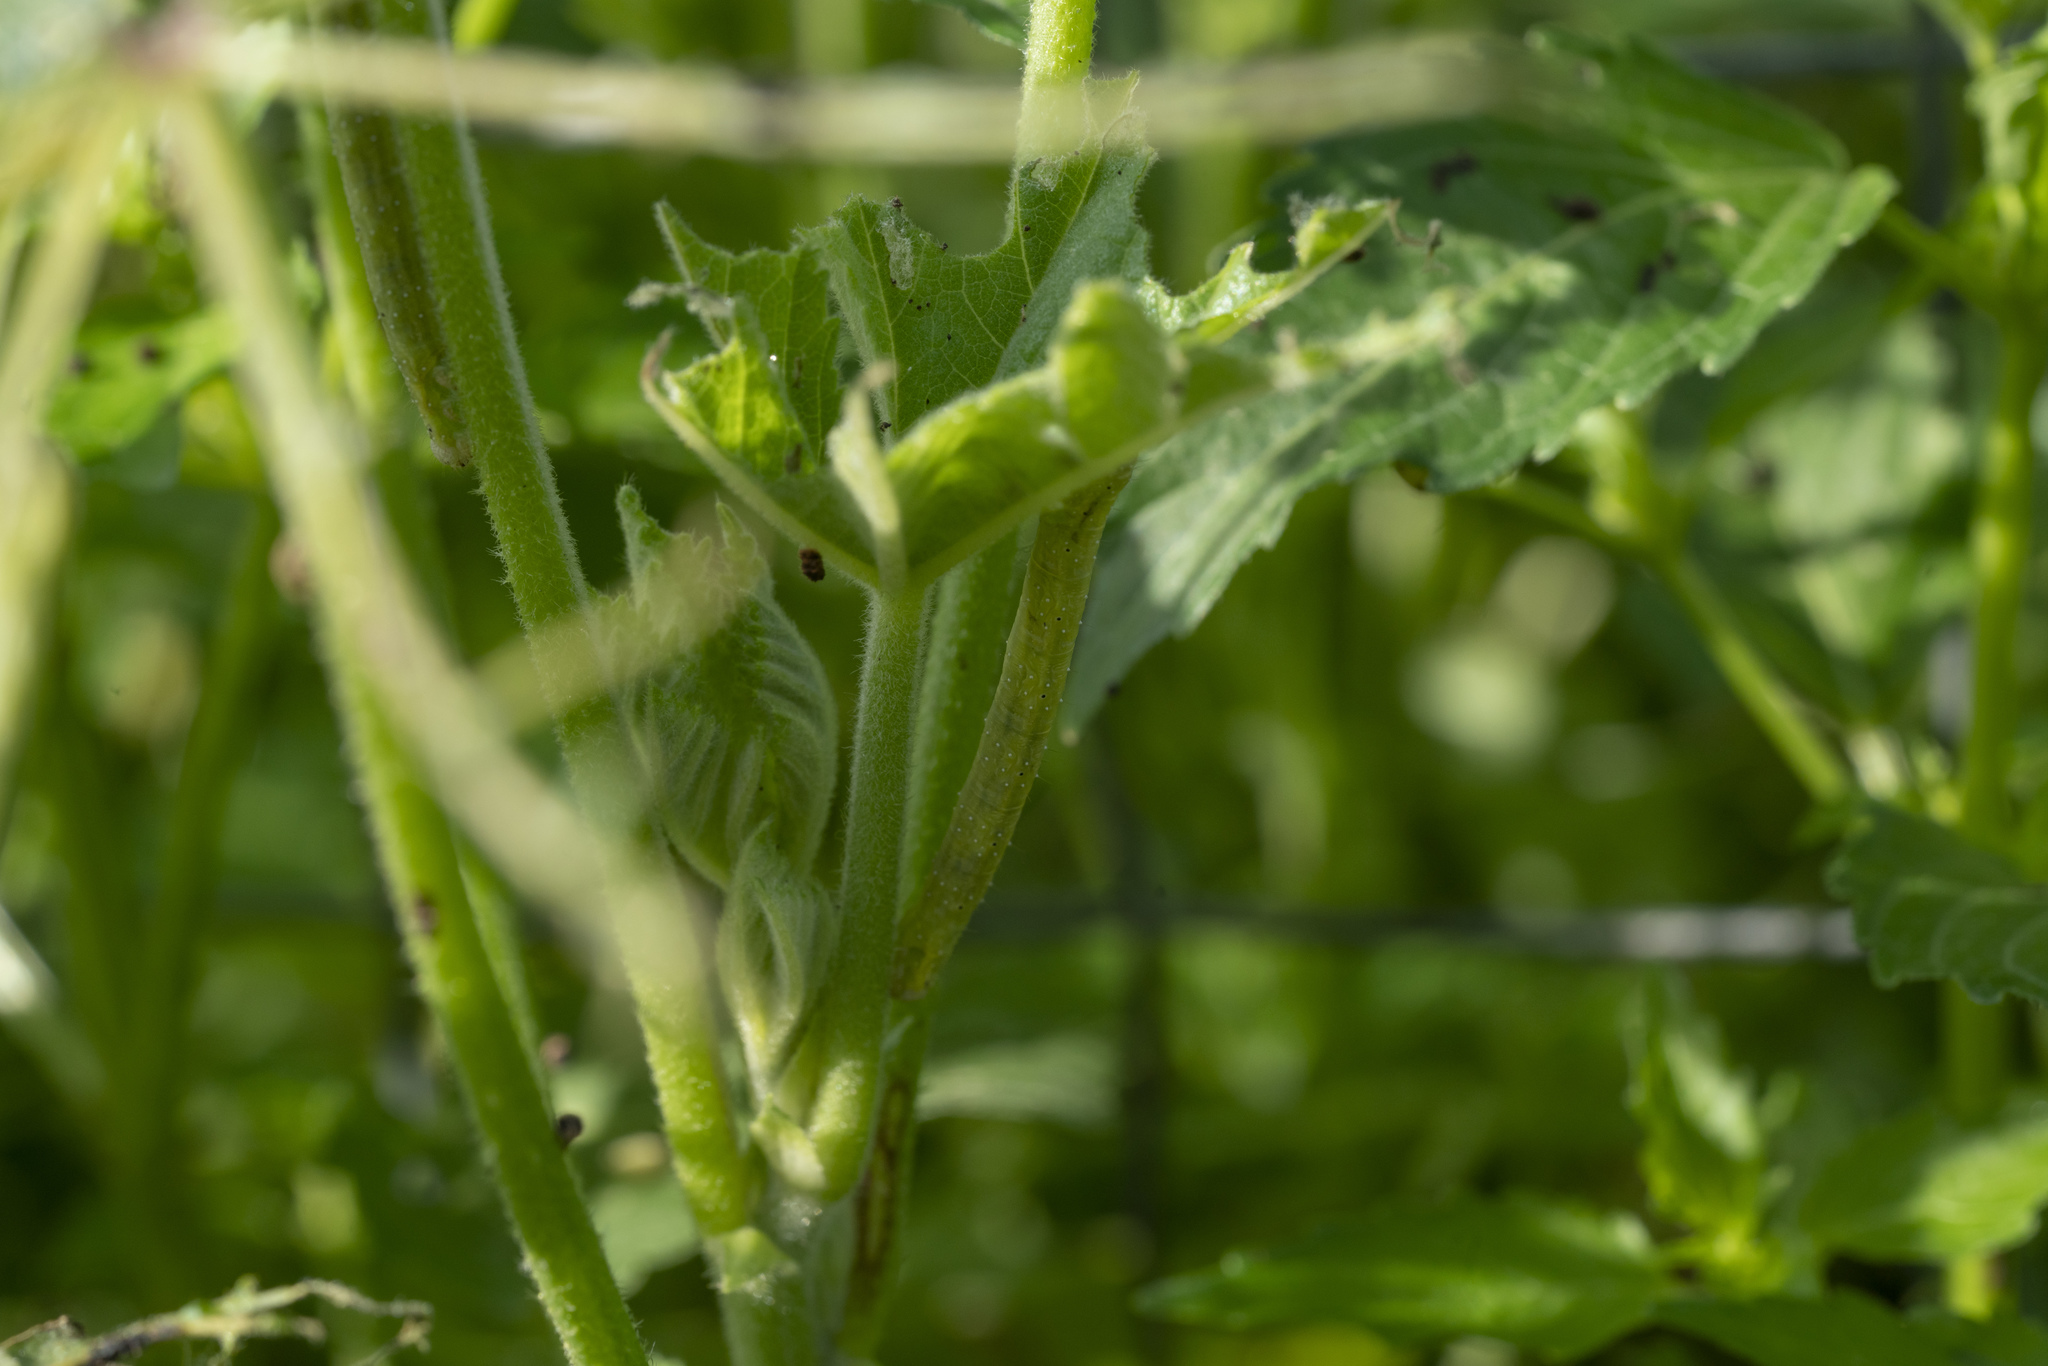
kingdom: Animalia
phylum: Arthropoda
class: Insecta
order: Lepidoptera
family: Geometridae
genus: Larentia
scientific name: Larentia clavaria
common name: Mallow
